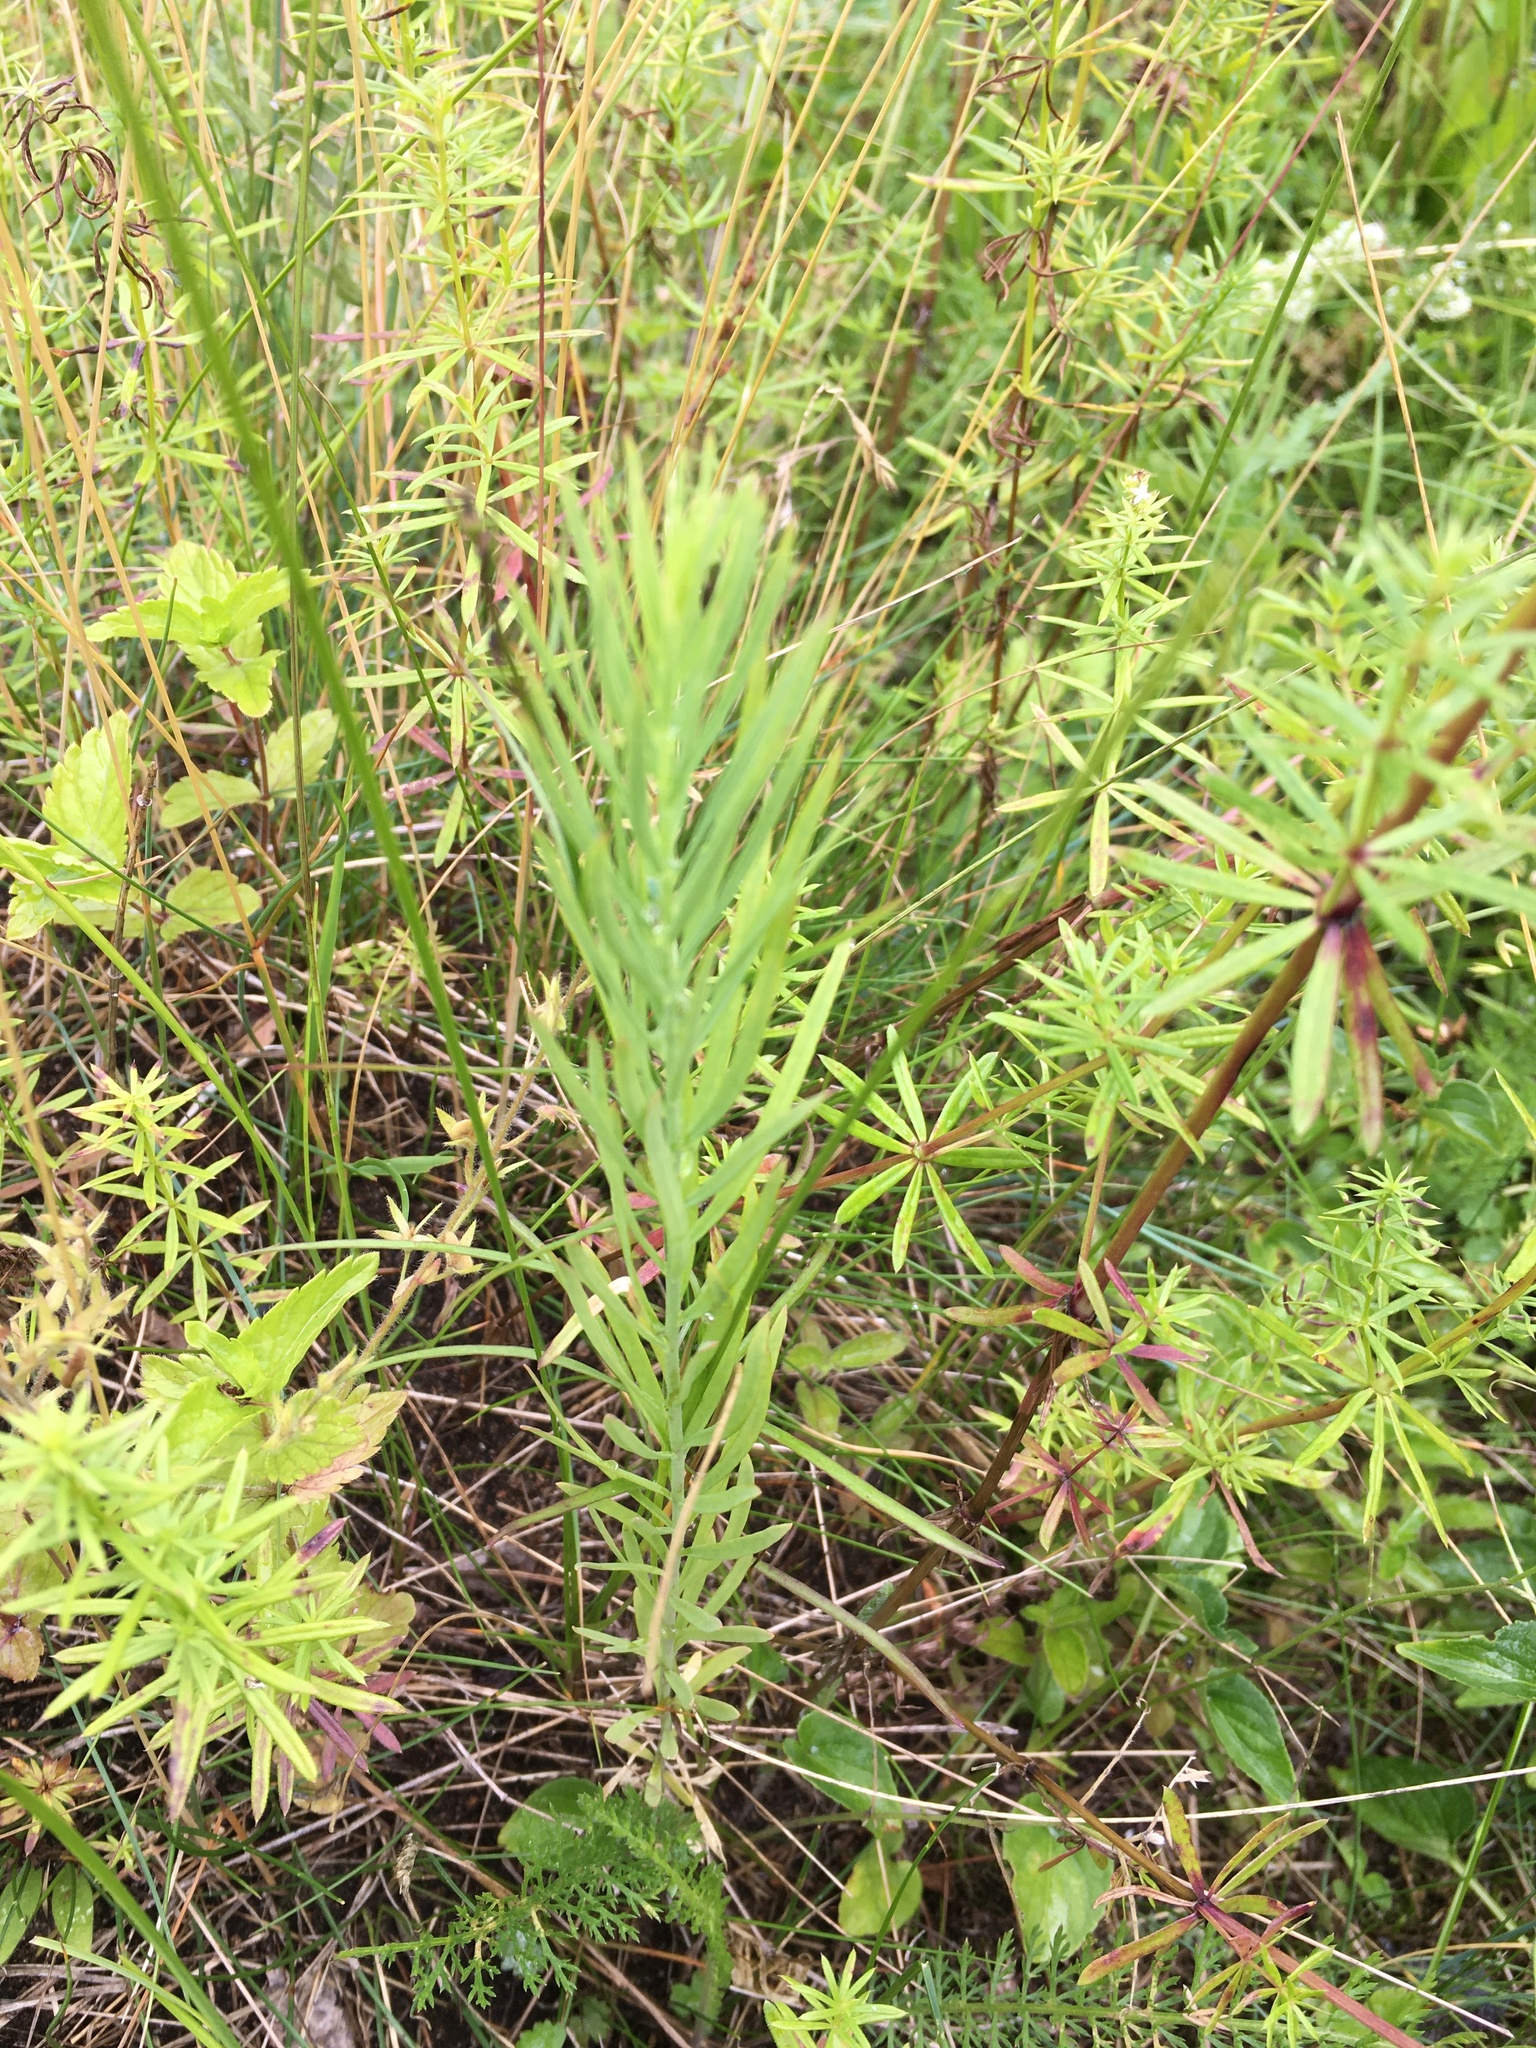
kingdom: Plantae
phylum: Tracheophyta
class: Magnoliopsida
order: Lamiales
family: Plantaginaceae
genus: Linaria
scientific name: Linaria vulgaris
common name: Butter and eggs
